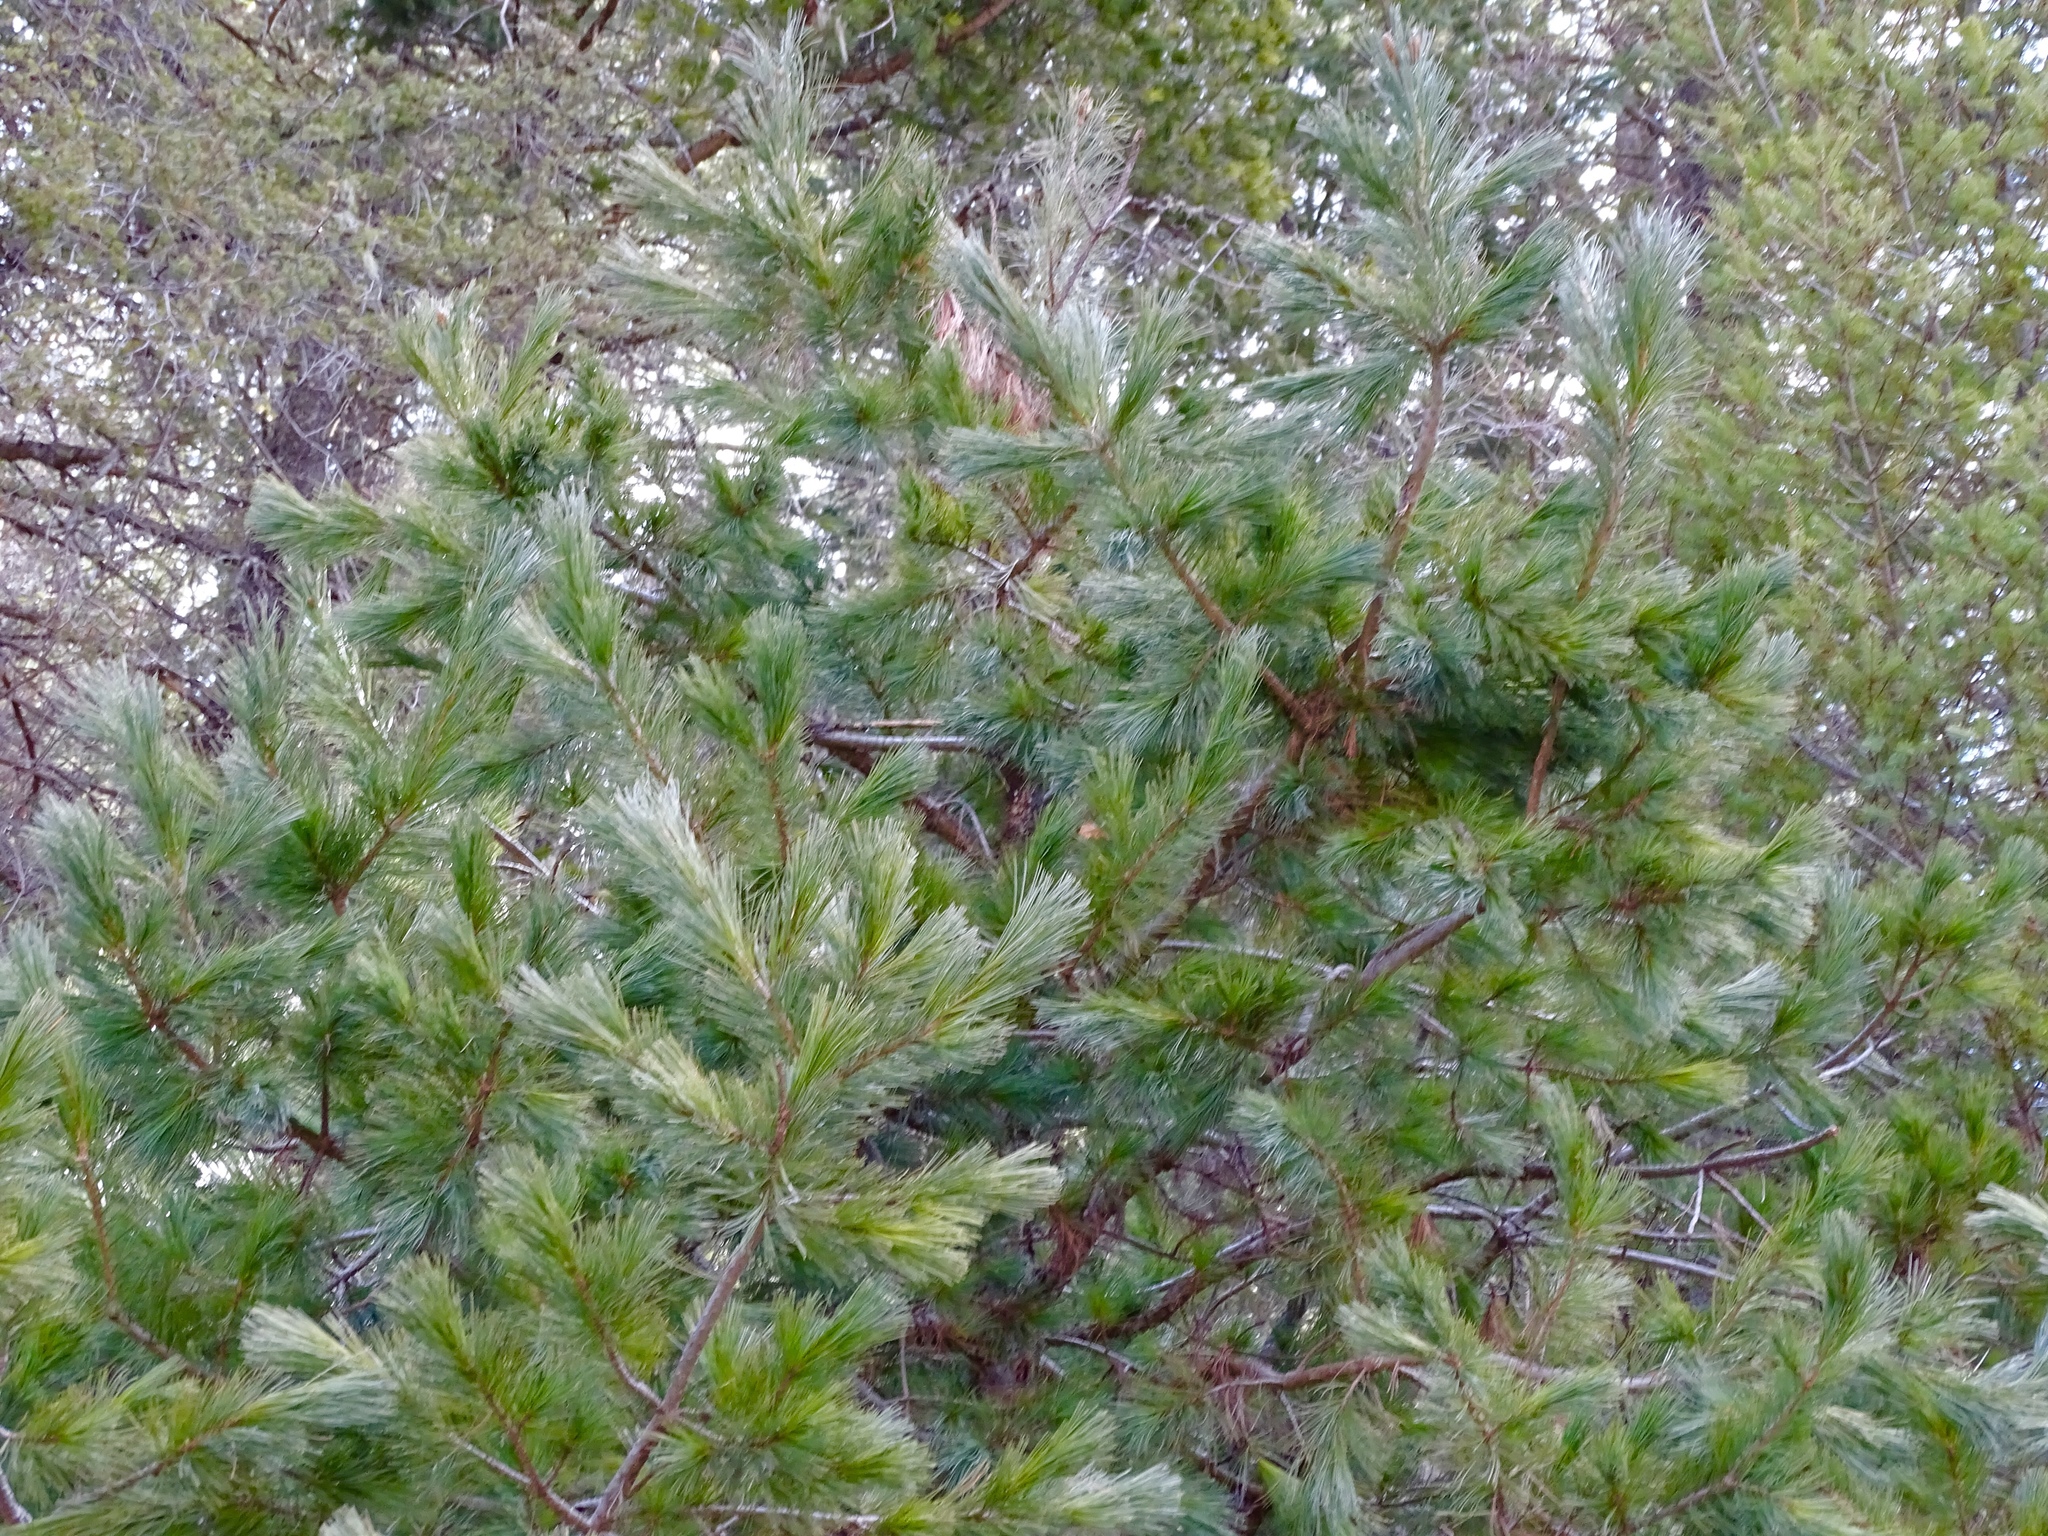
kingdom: Plantae
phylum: Tracheophyta
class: Pinopsida
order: Pinales
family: Pinaceae
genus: Pinus
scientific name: Pinus strobiformis
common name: Southwestern white pine
